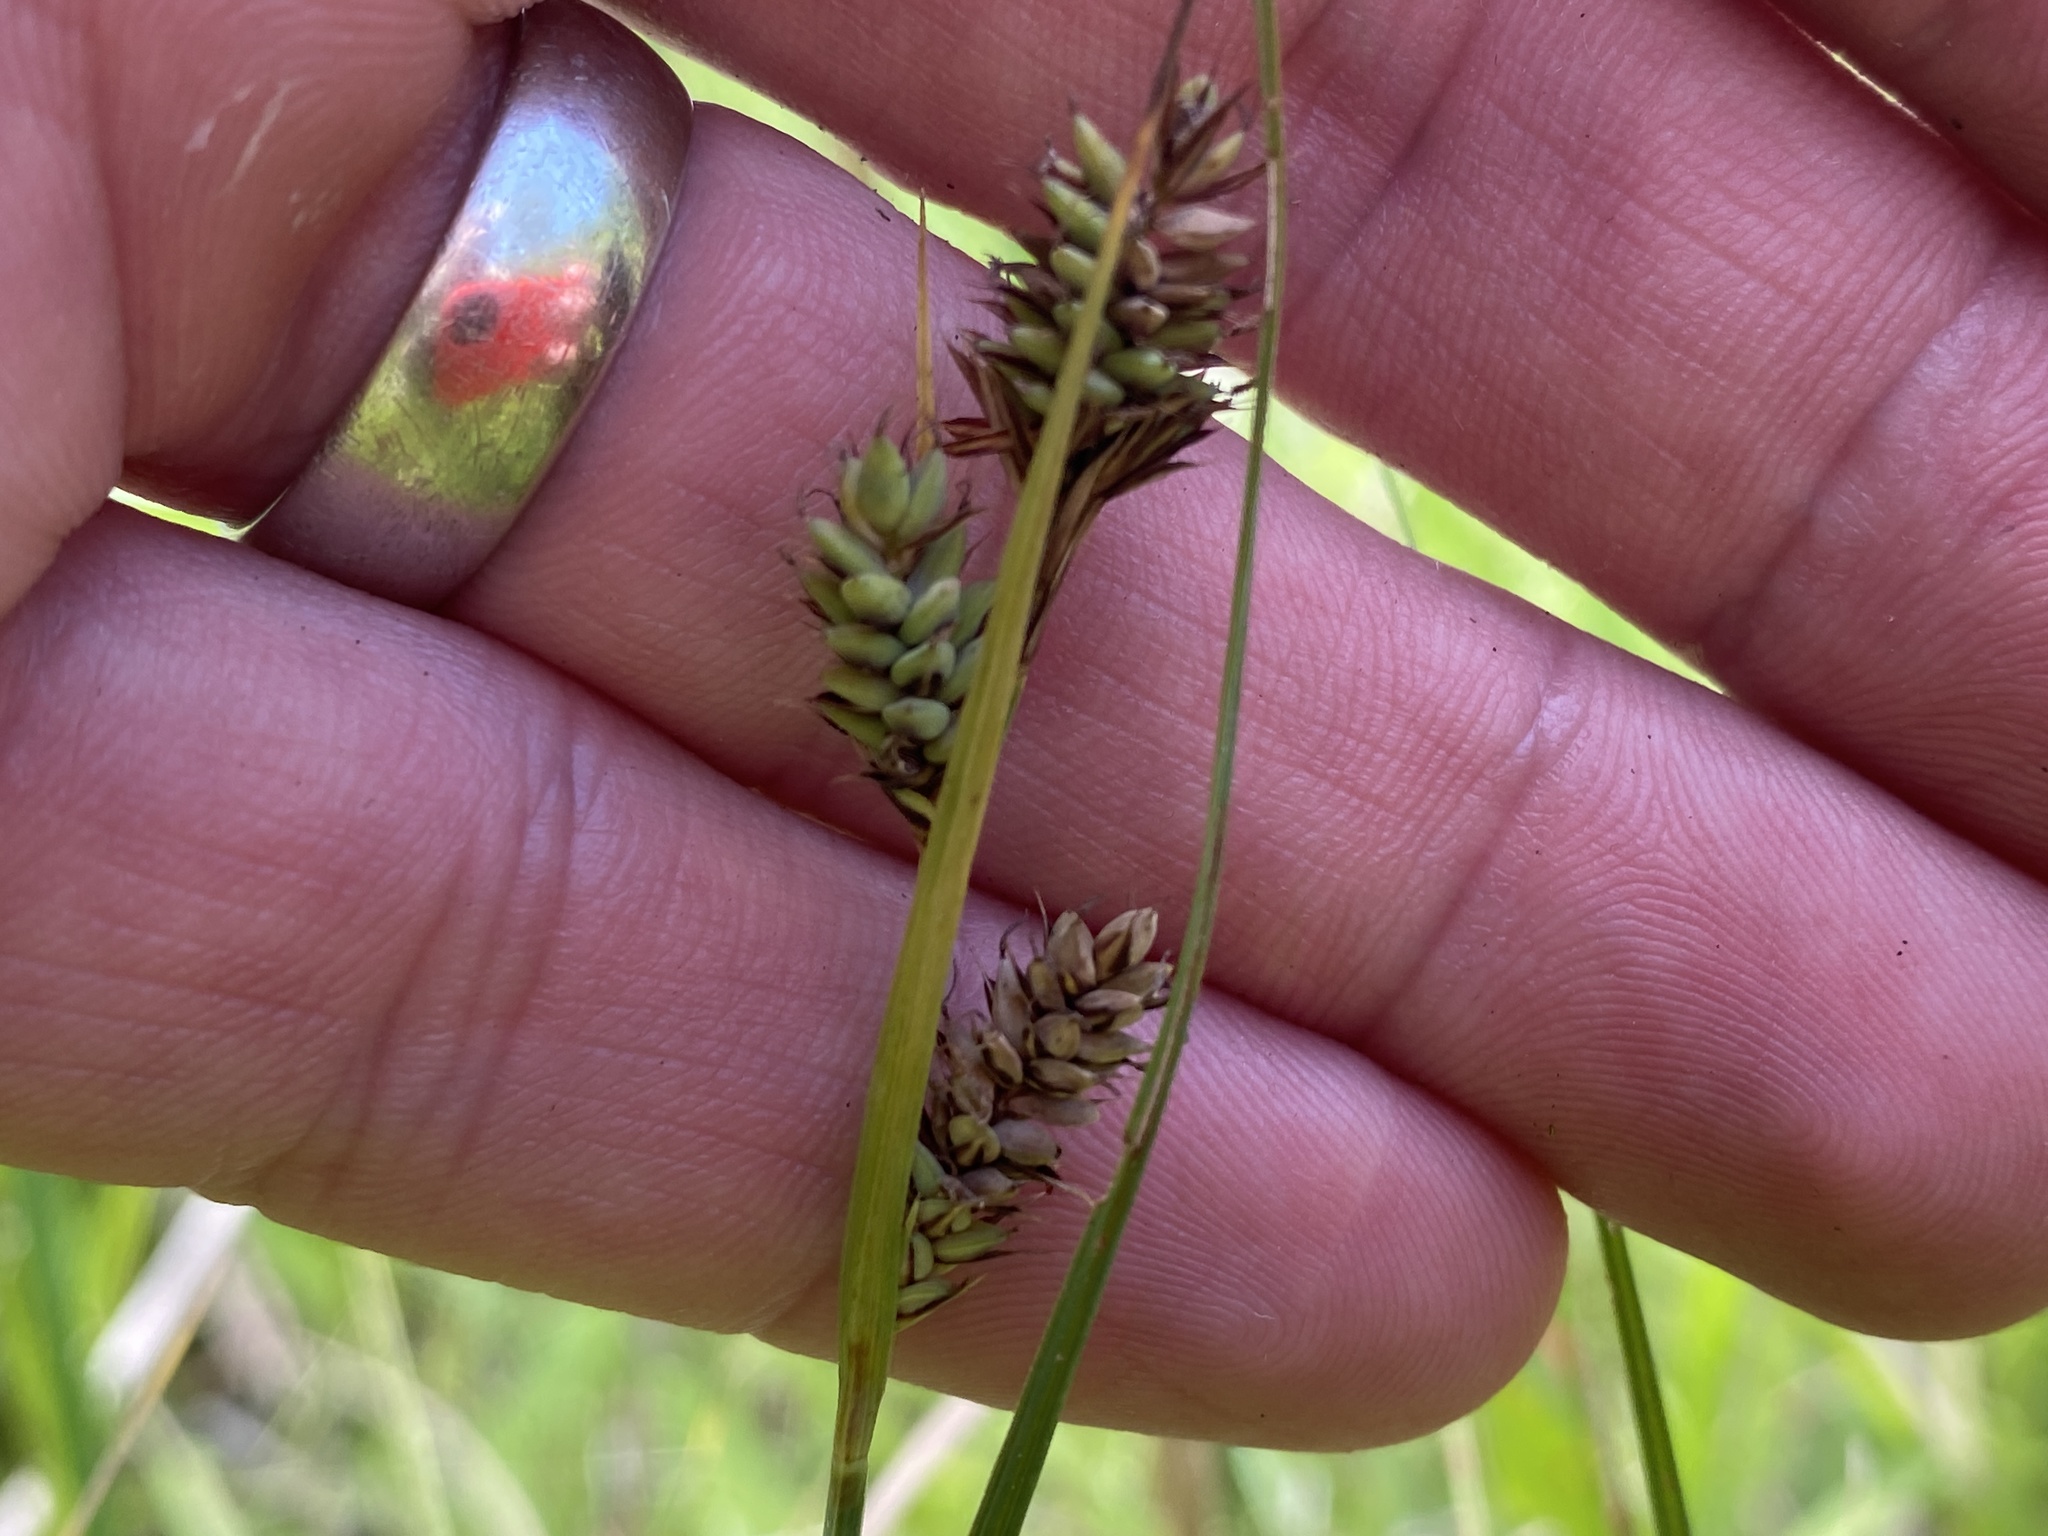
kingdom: Plantae
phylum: Tracheophyta
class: Liliopsida
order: Poales
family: Cyperaceae
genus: Carex
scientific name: Carex buxbaumii
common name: Club sedge
